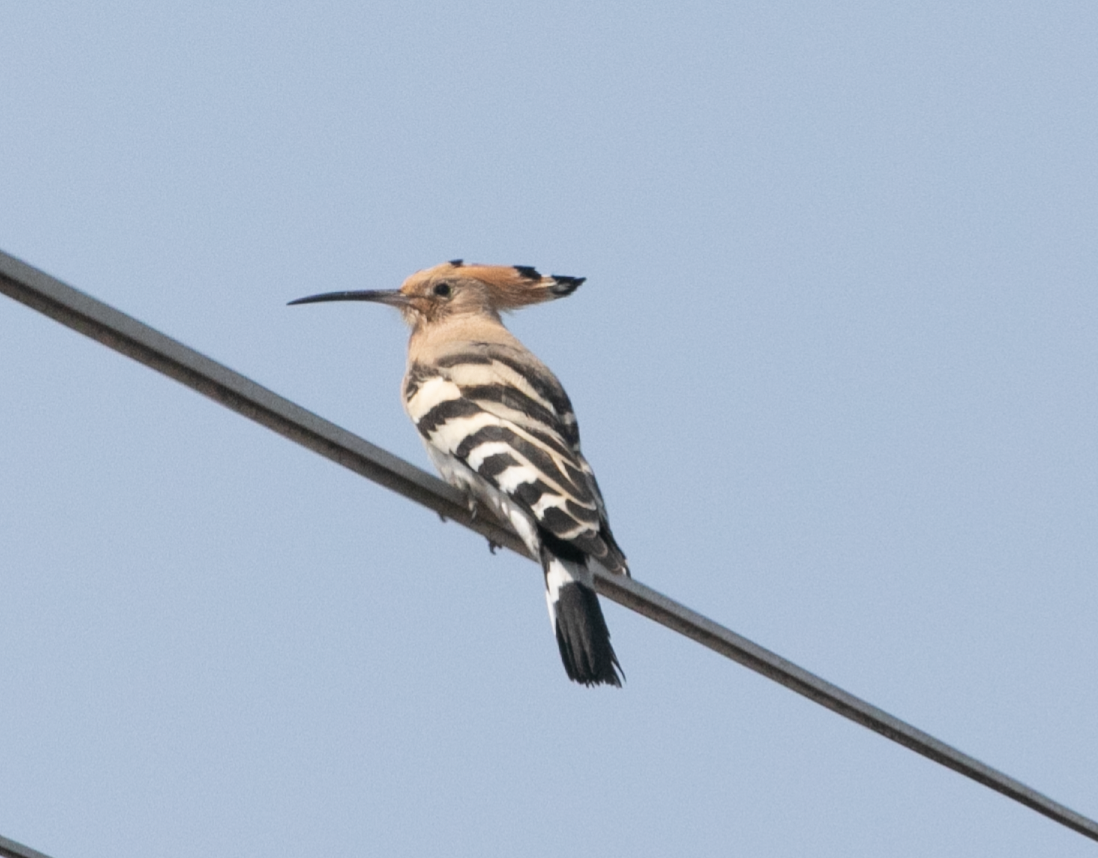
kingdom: Animalia
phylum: Chordata
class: Aves
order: Bucerotiformes
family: Upupidae
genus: Upupa
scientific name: Upupa epops
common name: Eurasian hoopoe
